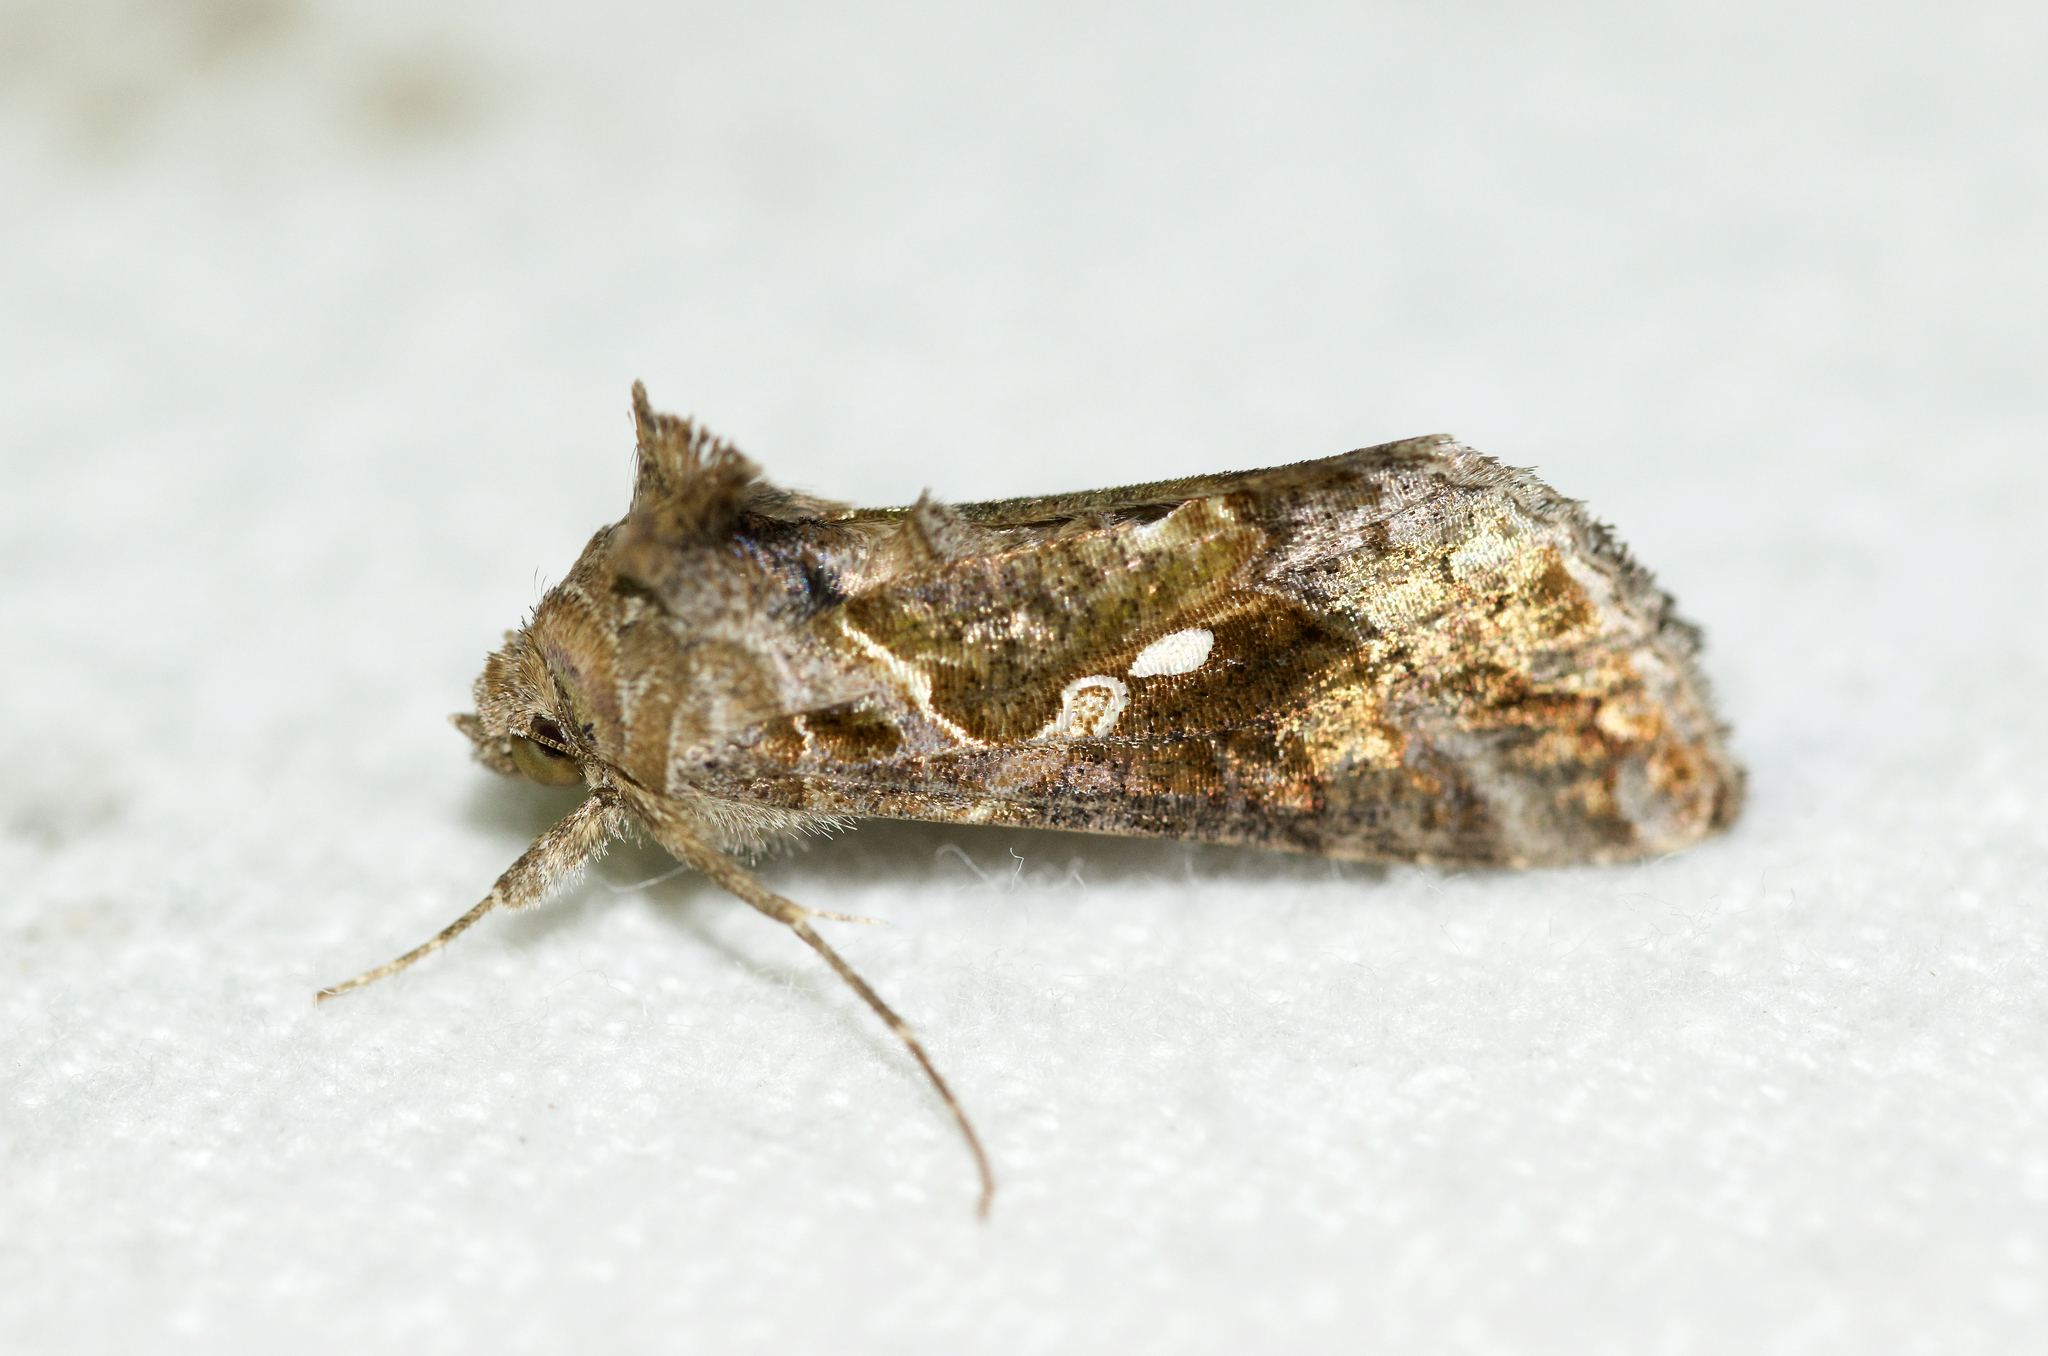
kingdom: Animalia
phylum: Arthropoda
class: Insecta
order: Lepidoptera
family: Noctuidae
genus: Chrysodeixis
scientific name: Chrysodeixis includens
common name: Cutworm moth
